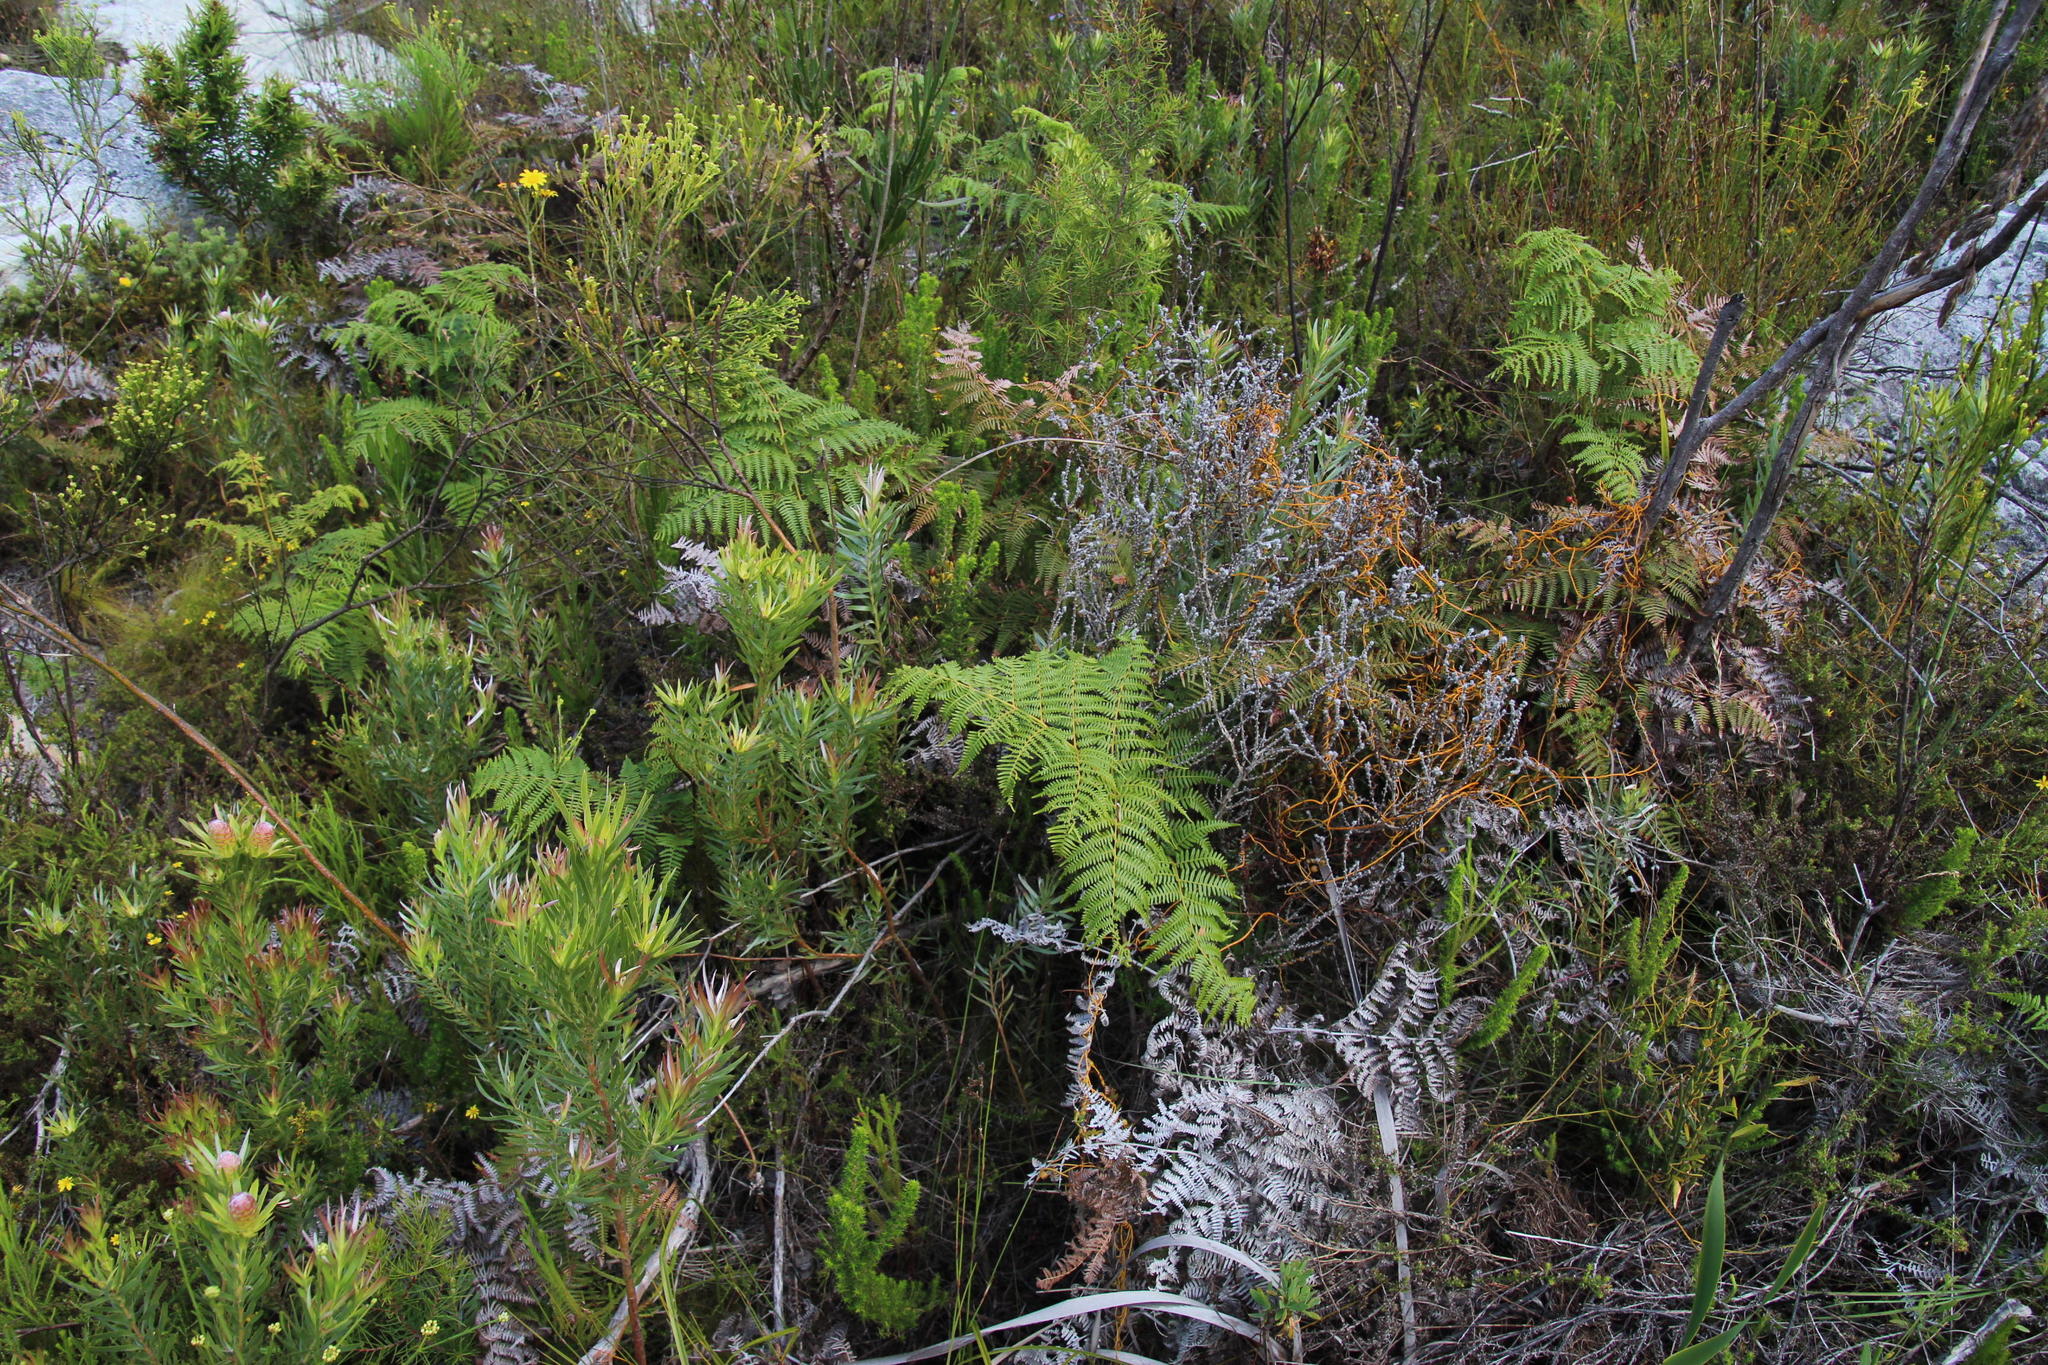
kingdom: Plantae
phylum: Tracheophyta
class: Polypodiopsida
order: Polypodiales
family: Dennstaedtiaceae
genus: Pteridium
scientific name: Pteridium aquilinum
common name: Bracken
